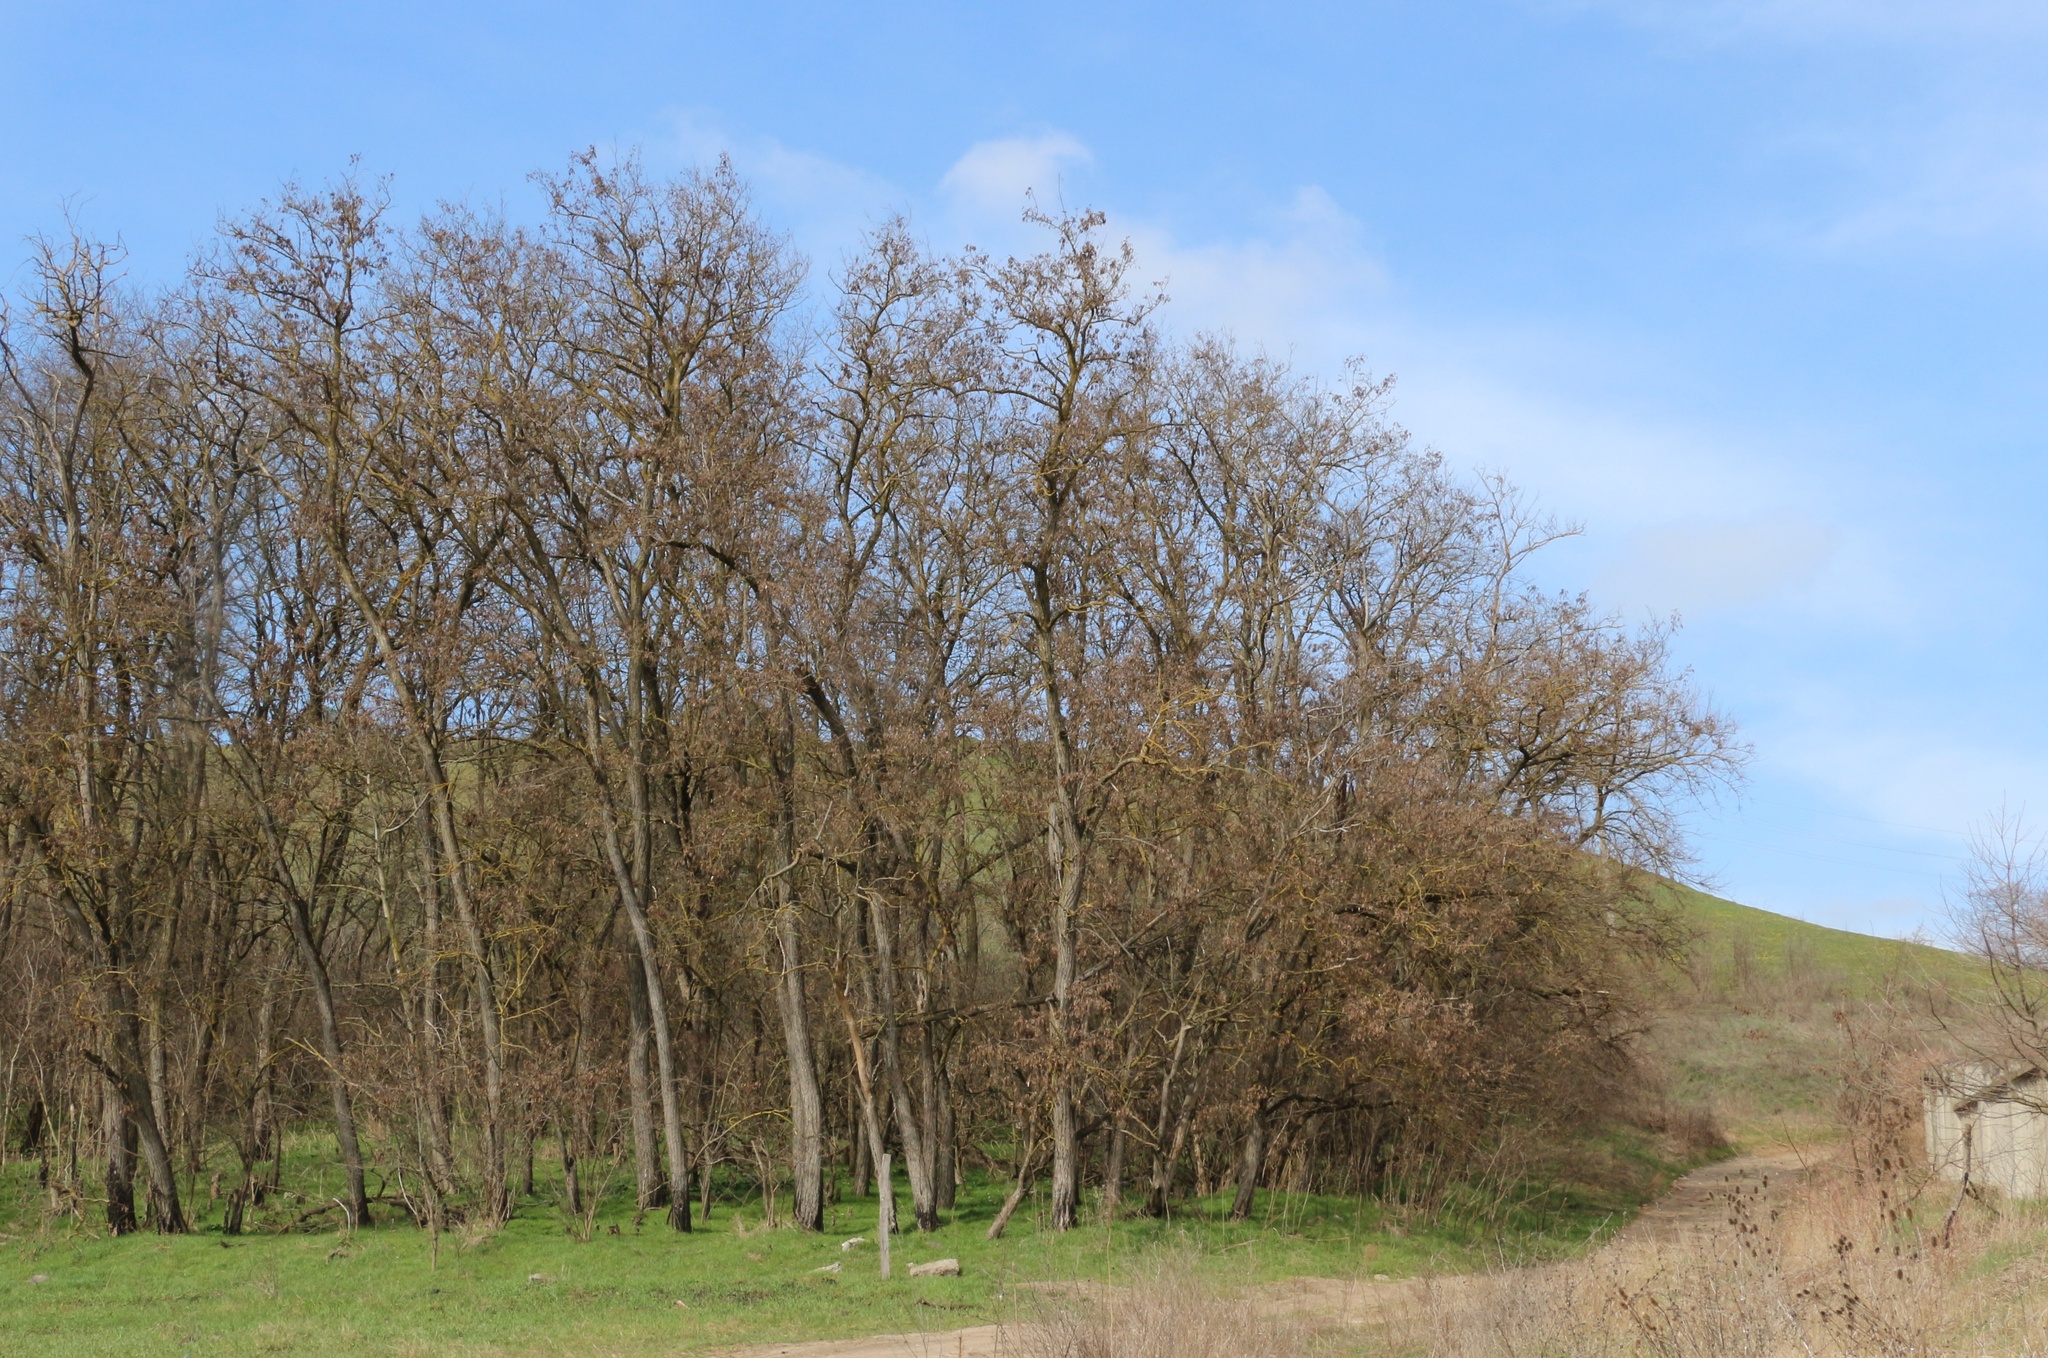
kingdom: Plantae
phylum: Tracheophyta
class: Magnoliopsida
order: Fabales
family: Fabaceae
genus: Robinia
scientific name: Robinia pseudoacacia
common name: Black locust
